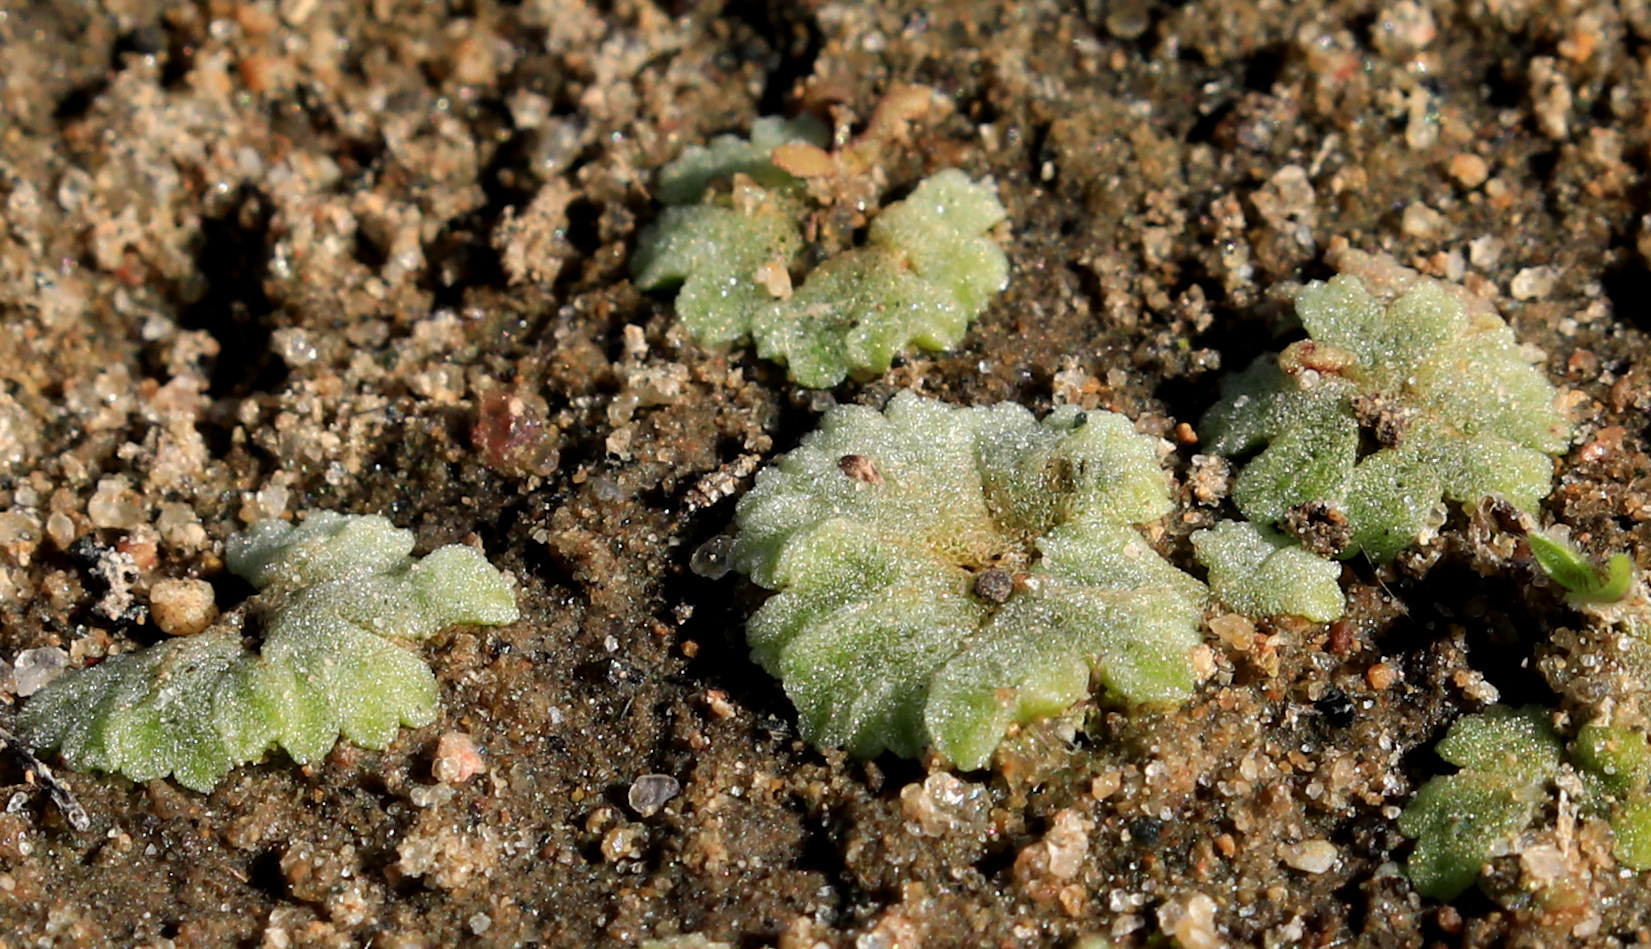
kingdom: Plantae
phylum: Marchantiophyta
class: Marchantiopsida
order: Marchantiales
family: Ricciaceae
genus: Riccia
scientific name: Riccia cavernosa
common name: Cavernous crystalwort
